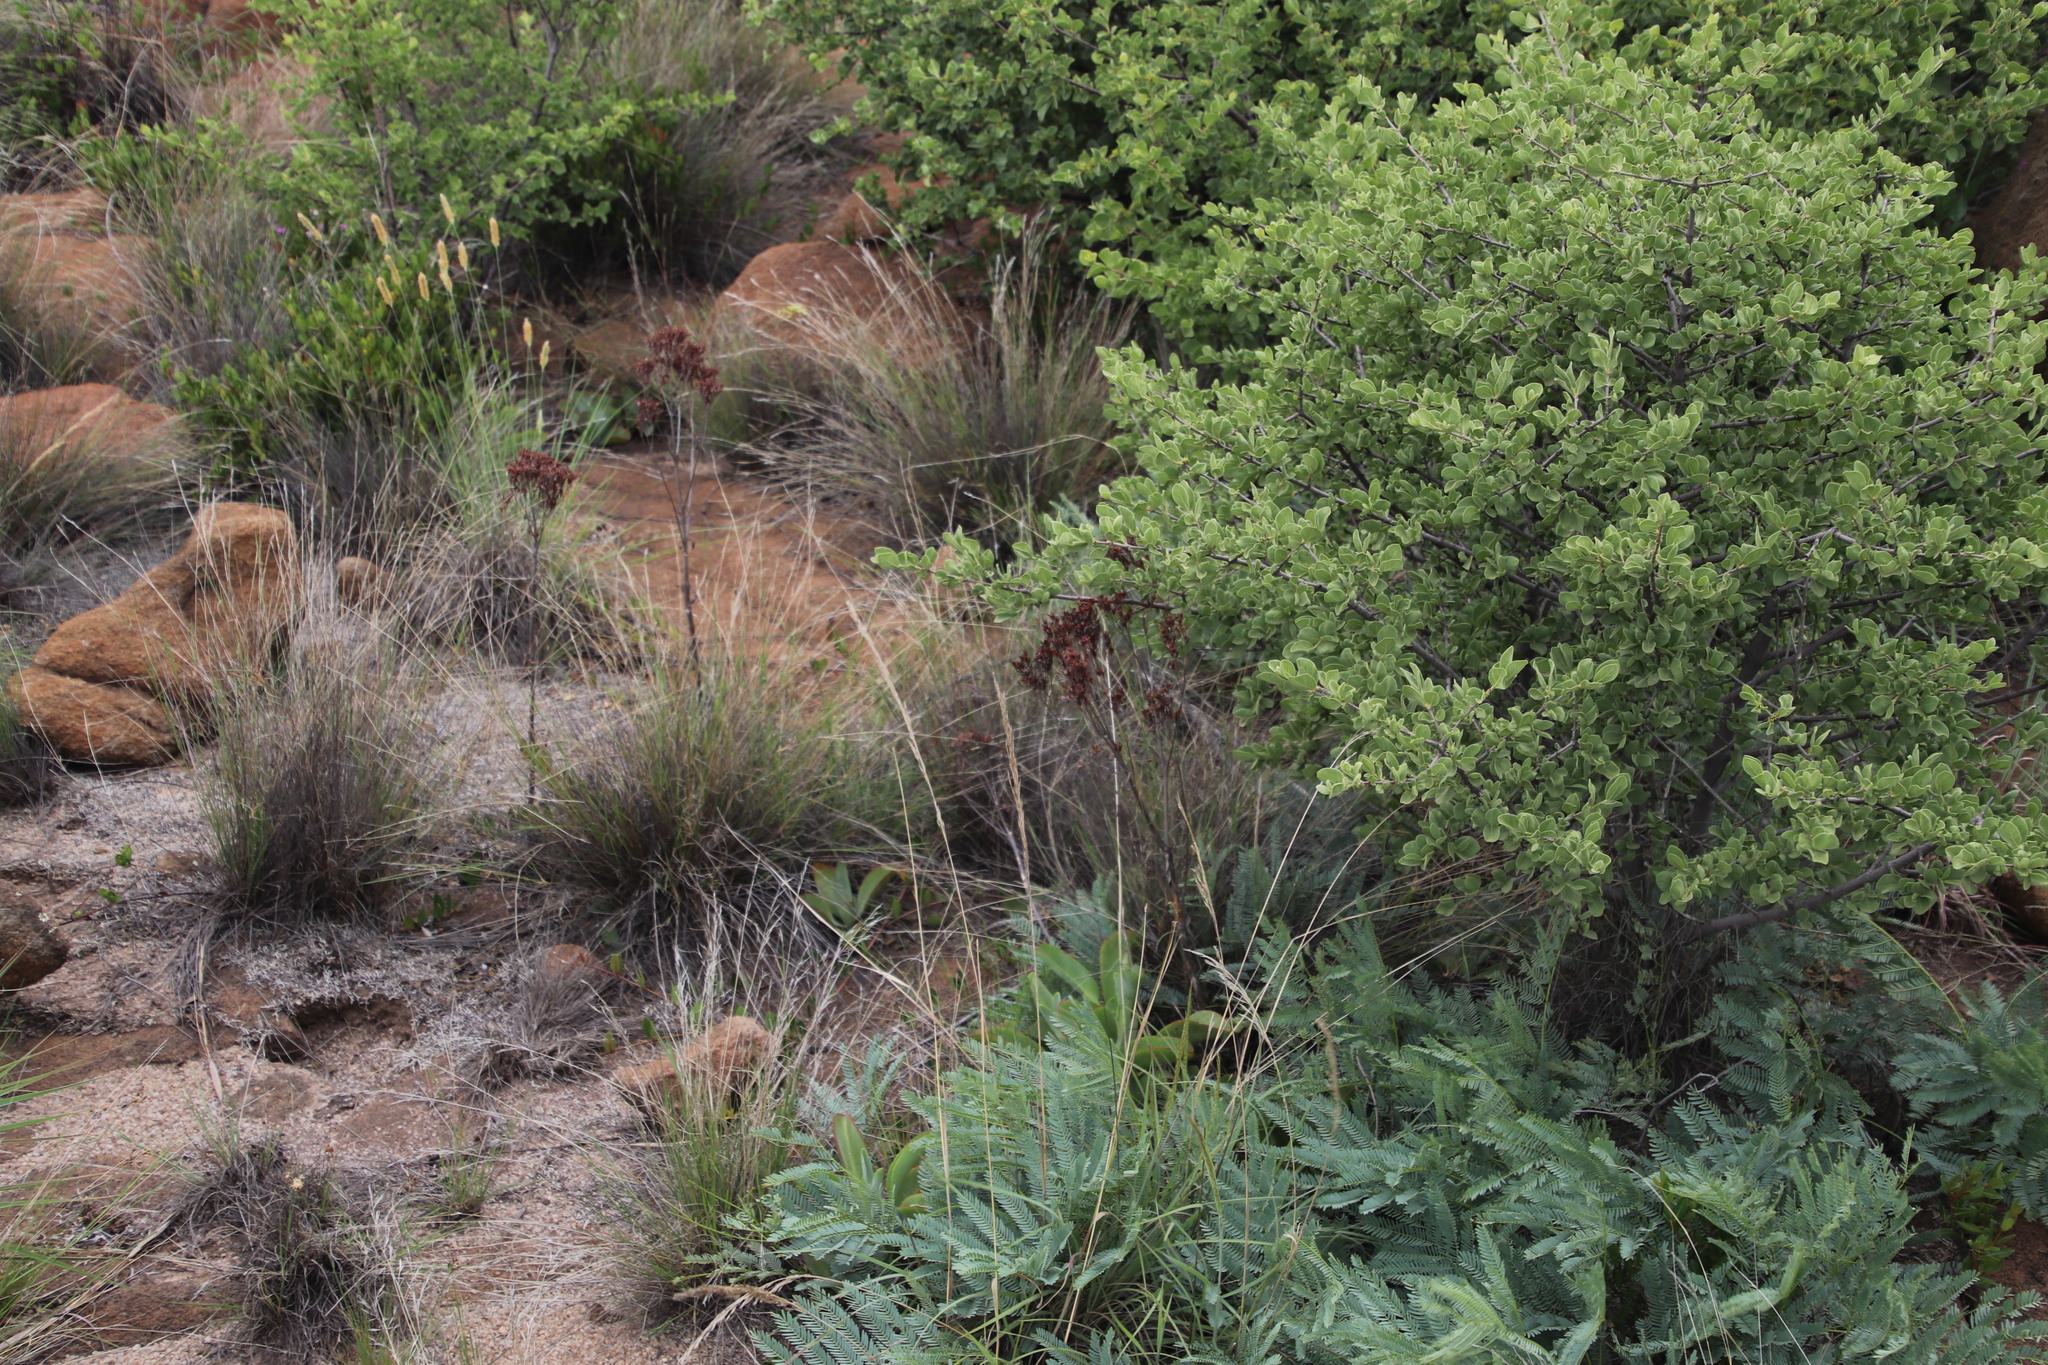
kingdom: Plantae
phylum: Tracheophyta
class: Magnoliopsida
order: Saxifragales
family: Crassulaceae
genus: Kalanchoe
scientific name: Kalanchoe rotundifolia
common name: Common kalanchoe
